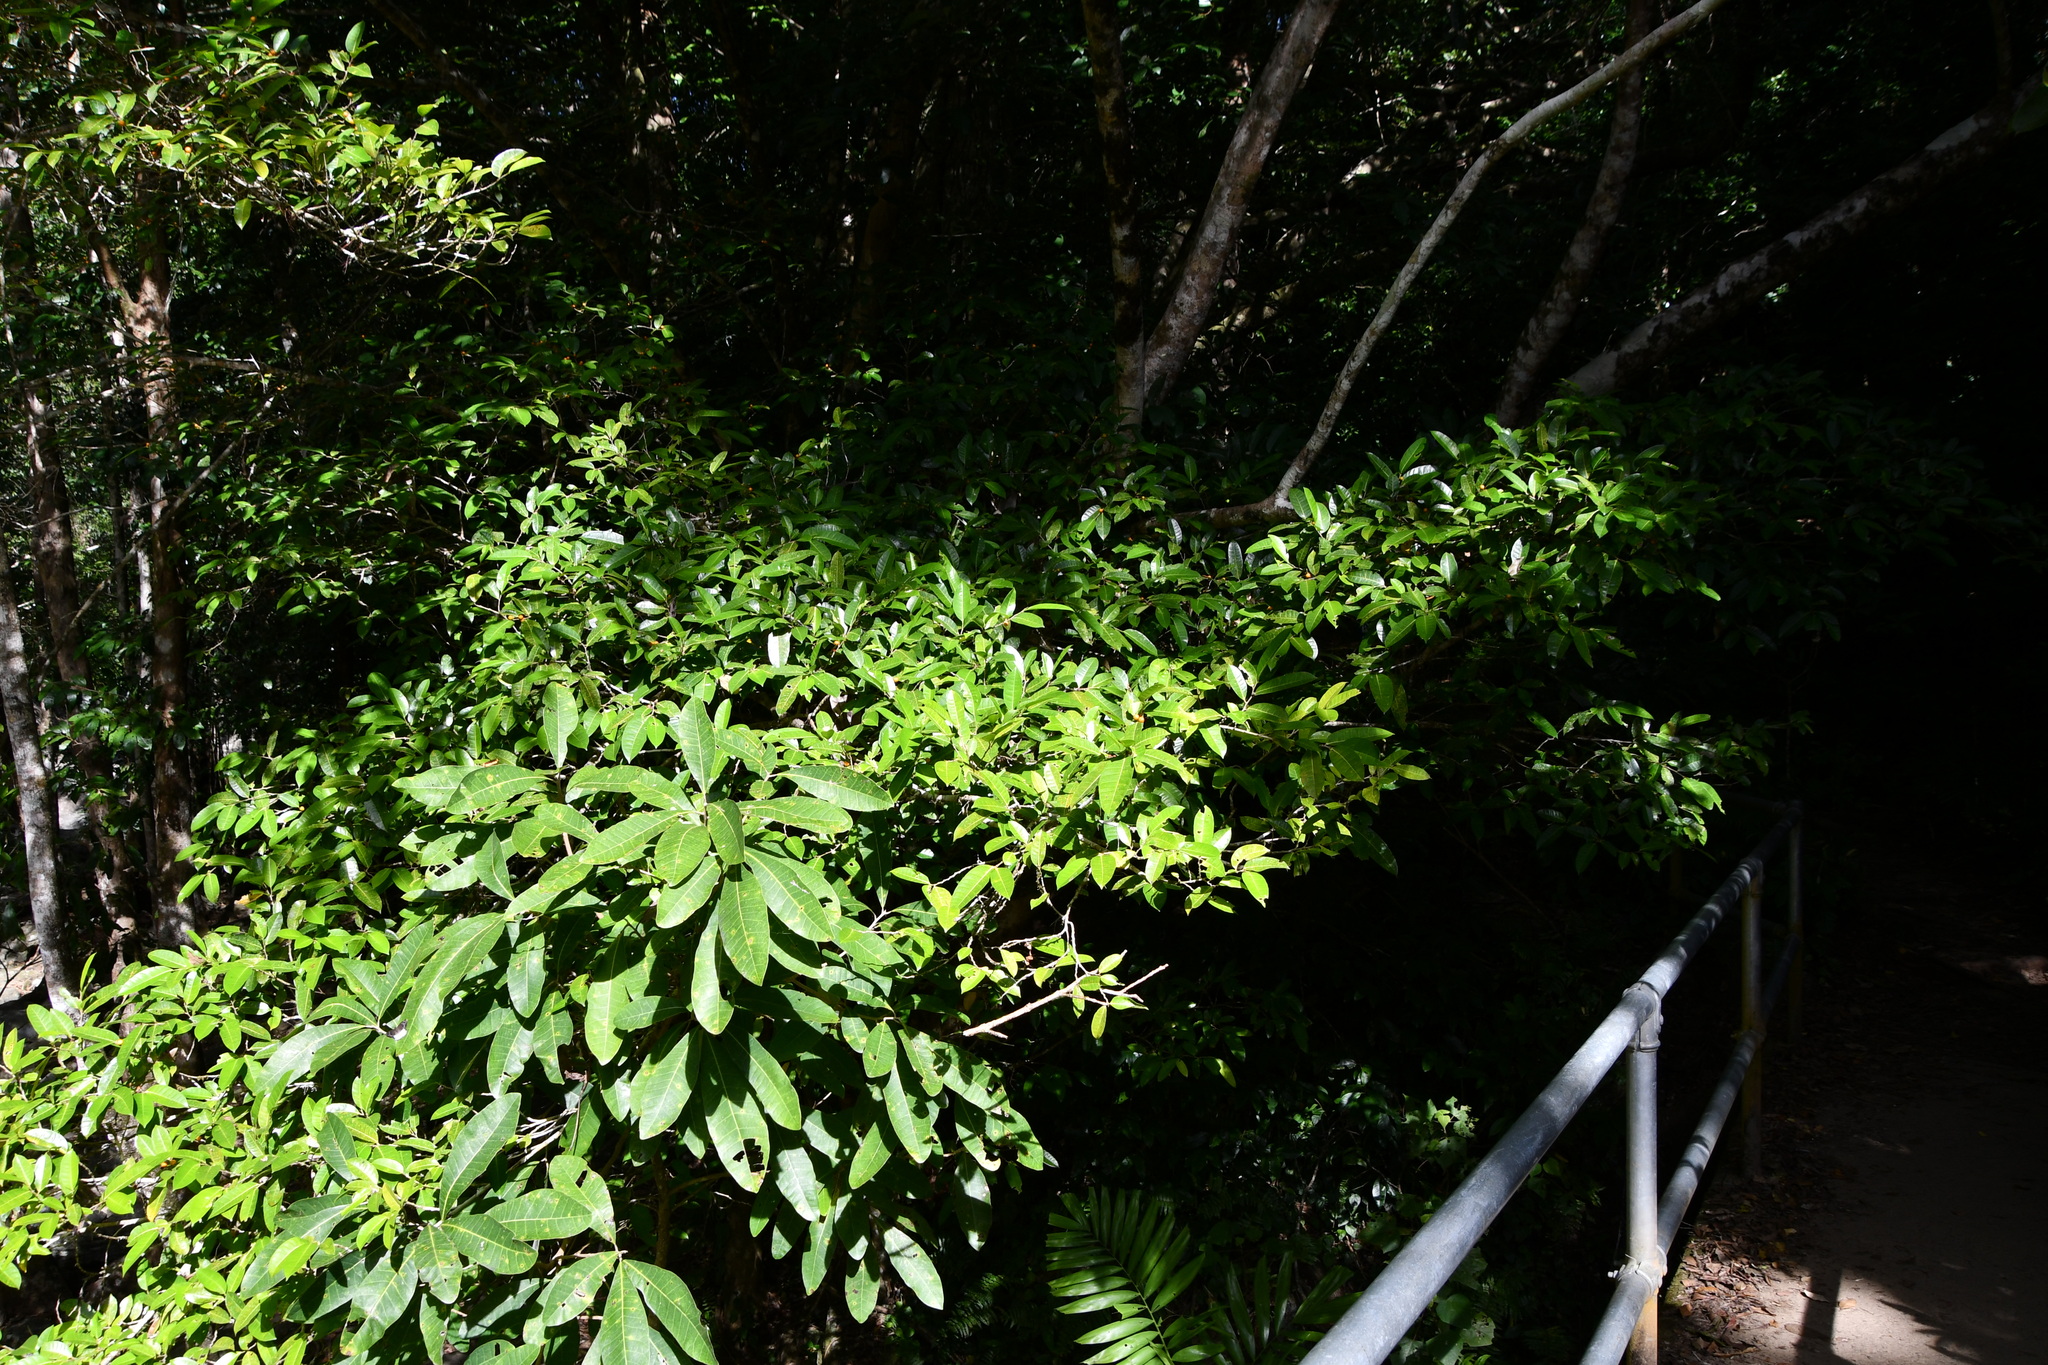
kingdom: Plantae
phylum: Tracheophyta
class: Magnoliopsida
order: Rosales
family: Moraceae
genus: Ficus
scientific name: Ficus virgata
